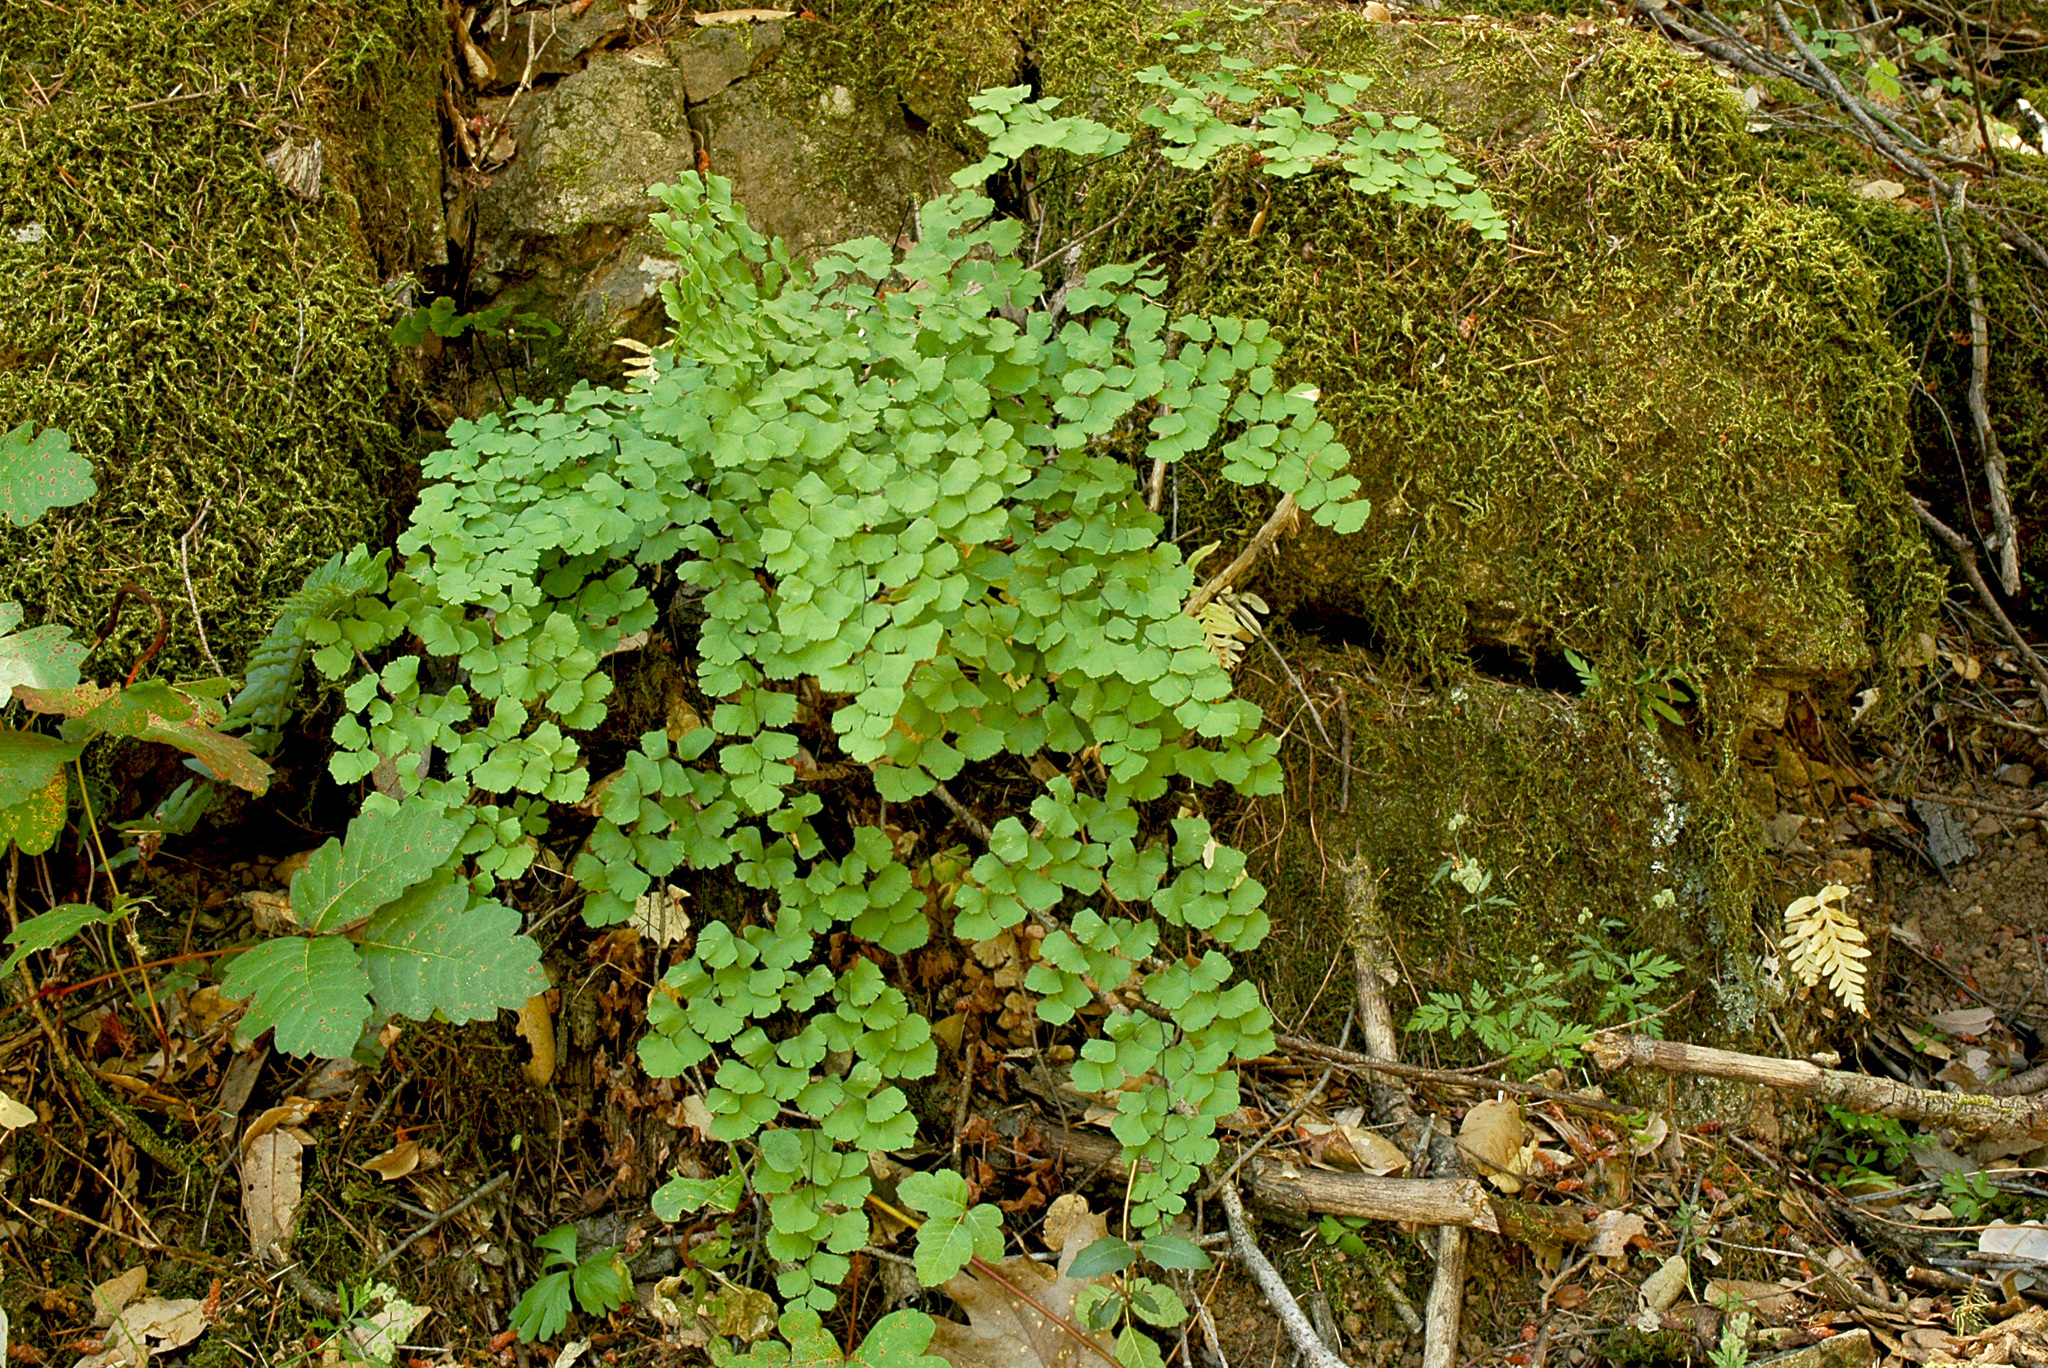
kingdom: Plantae
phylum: Tracheophyta
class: Polypodiopsida
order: Polypodiales
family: Pteridaceae
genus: Adiantum
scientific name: Adiantum shastense
